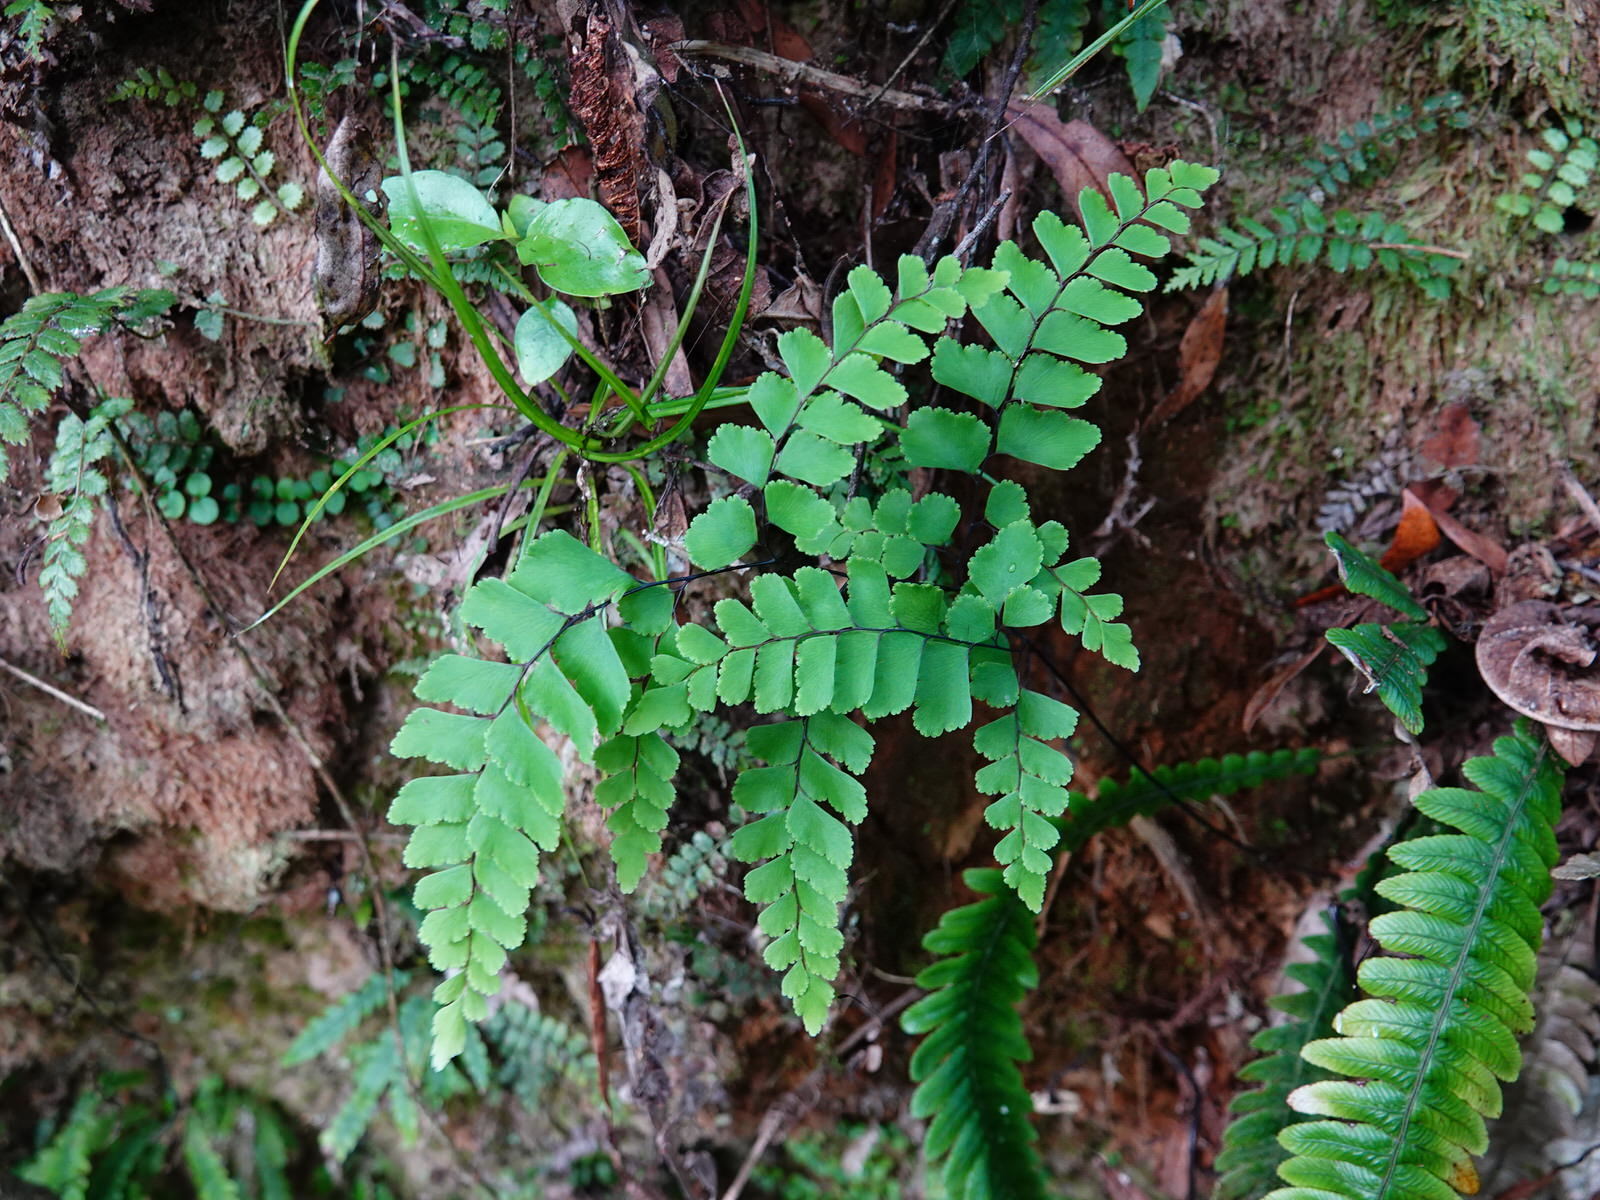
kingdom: Plantae
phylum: Tracheophyta
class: Polypodiopsida
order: Polypodiales
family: Pteridaceae
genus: Adiantum
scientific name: Adiantum cunninghamii
